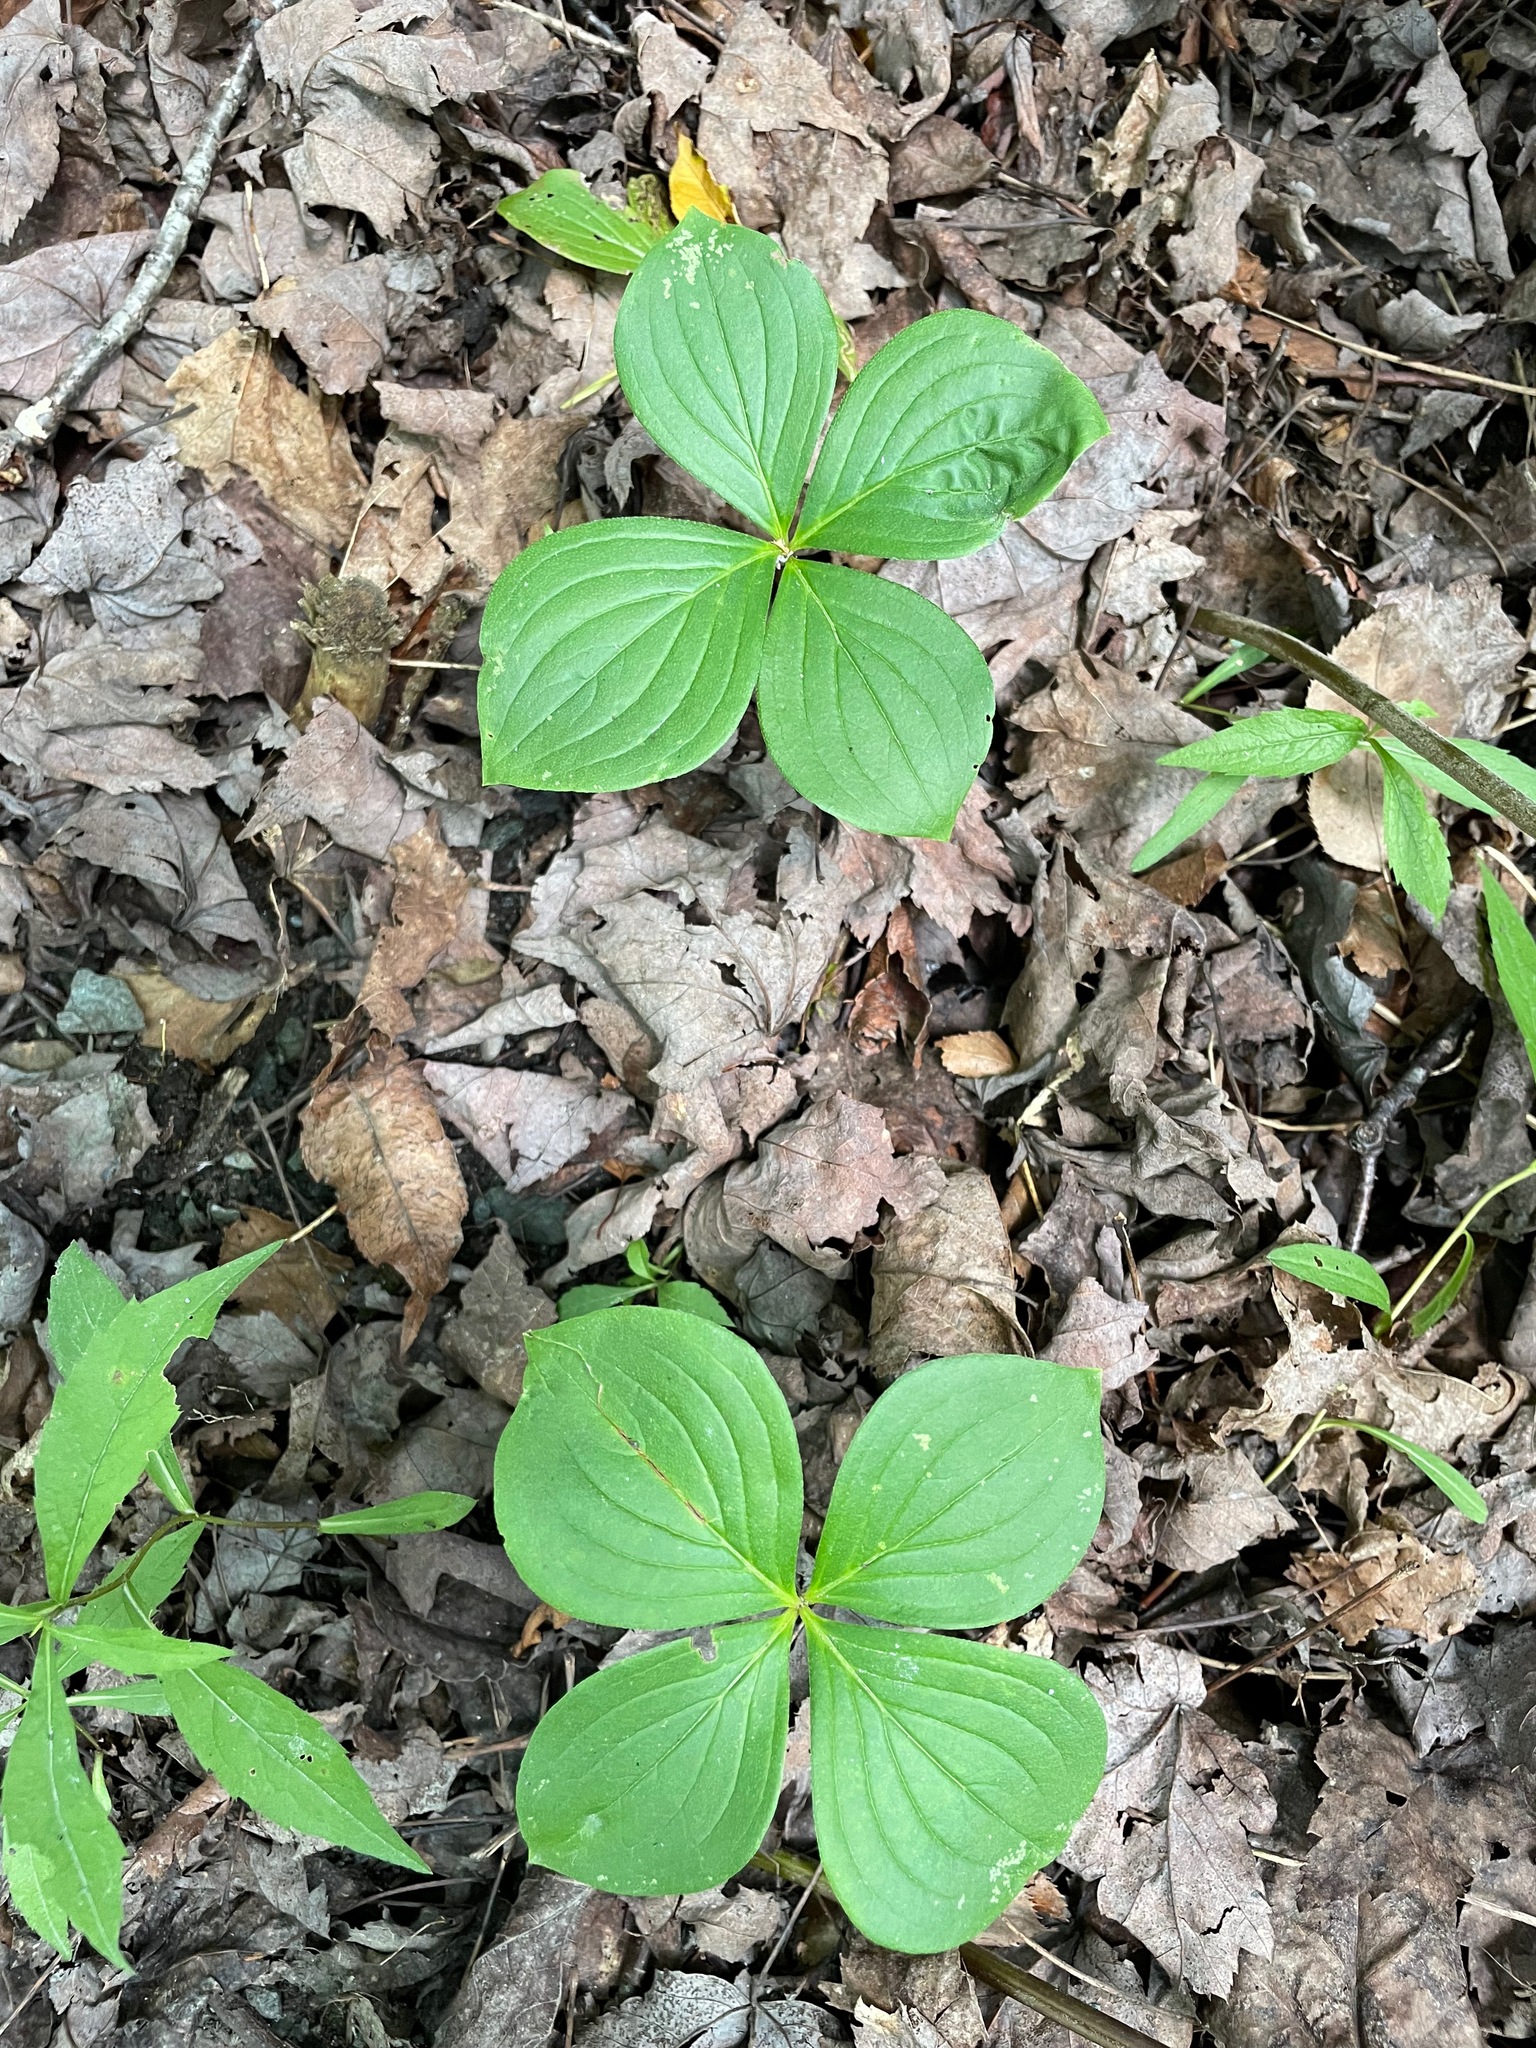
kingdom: Plantae
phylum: Tracheophyta
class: Magnoliopsida
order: Cornales
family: Cornaceae
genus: Cornus
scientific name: Cornus canadensis
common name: Creeping dogwood
